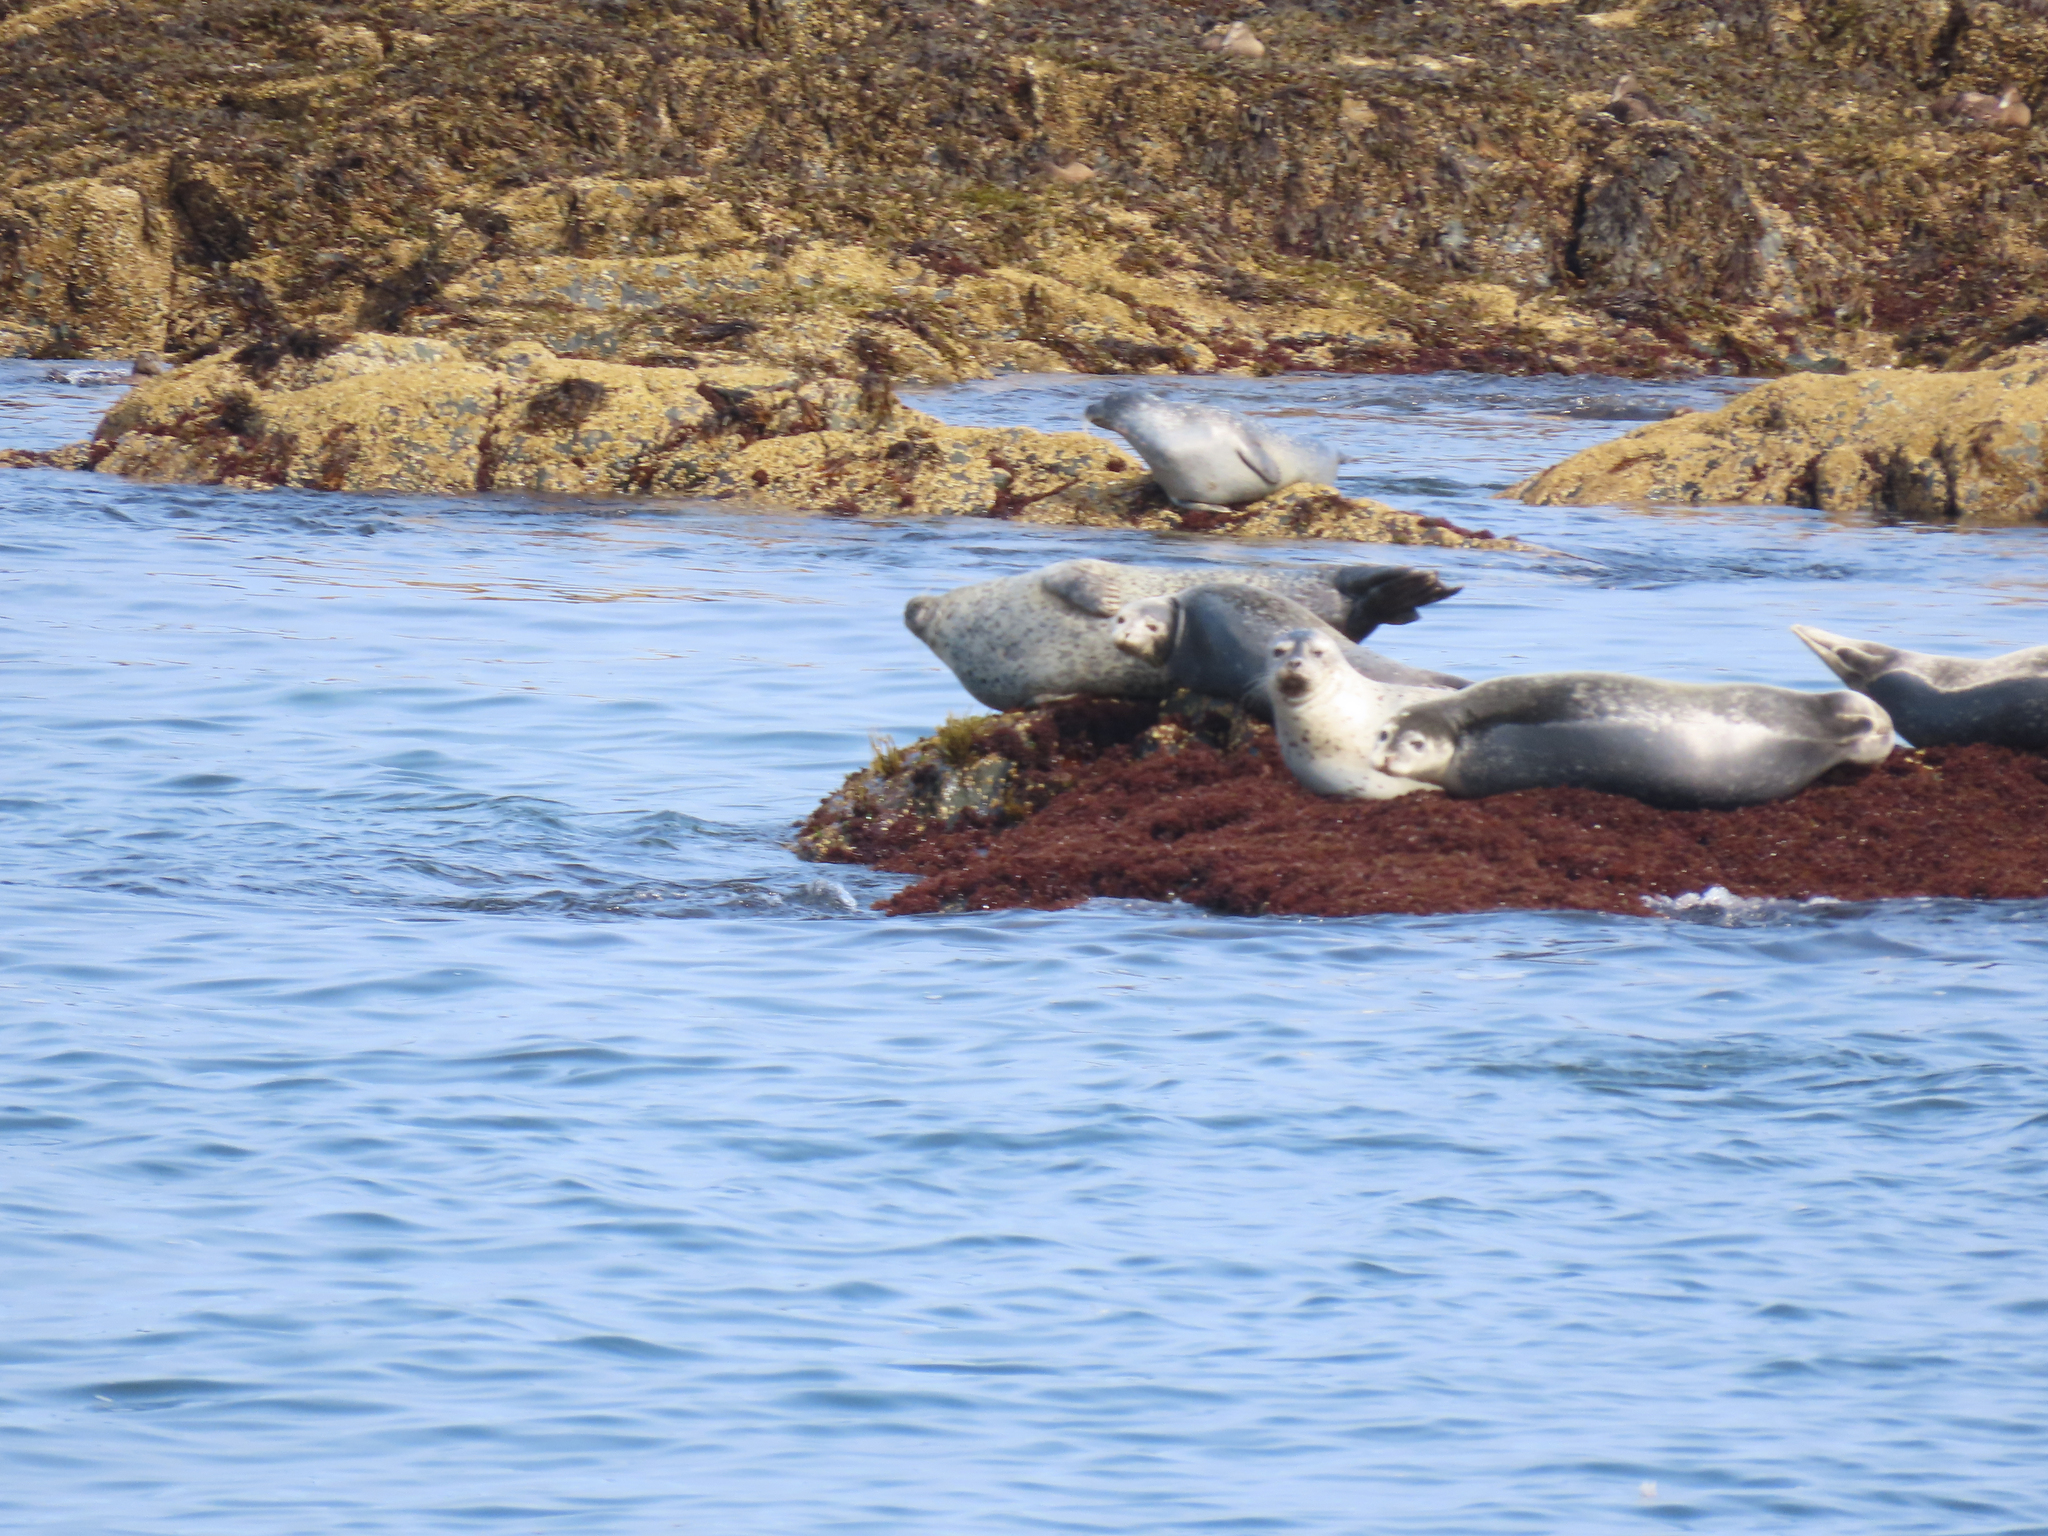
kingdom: Animalia
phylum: Chordata
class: Mammalia
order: Carnivora
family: Phocidae
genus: Phoca
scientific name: Phoca vitulina
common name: Harbor seal
